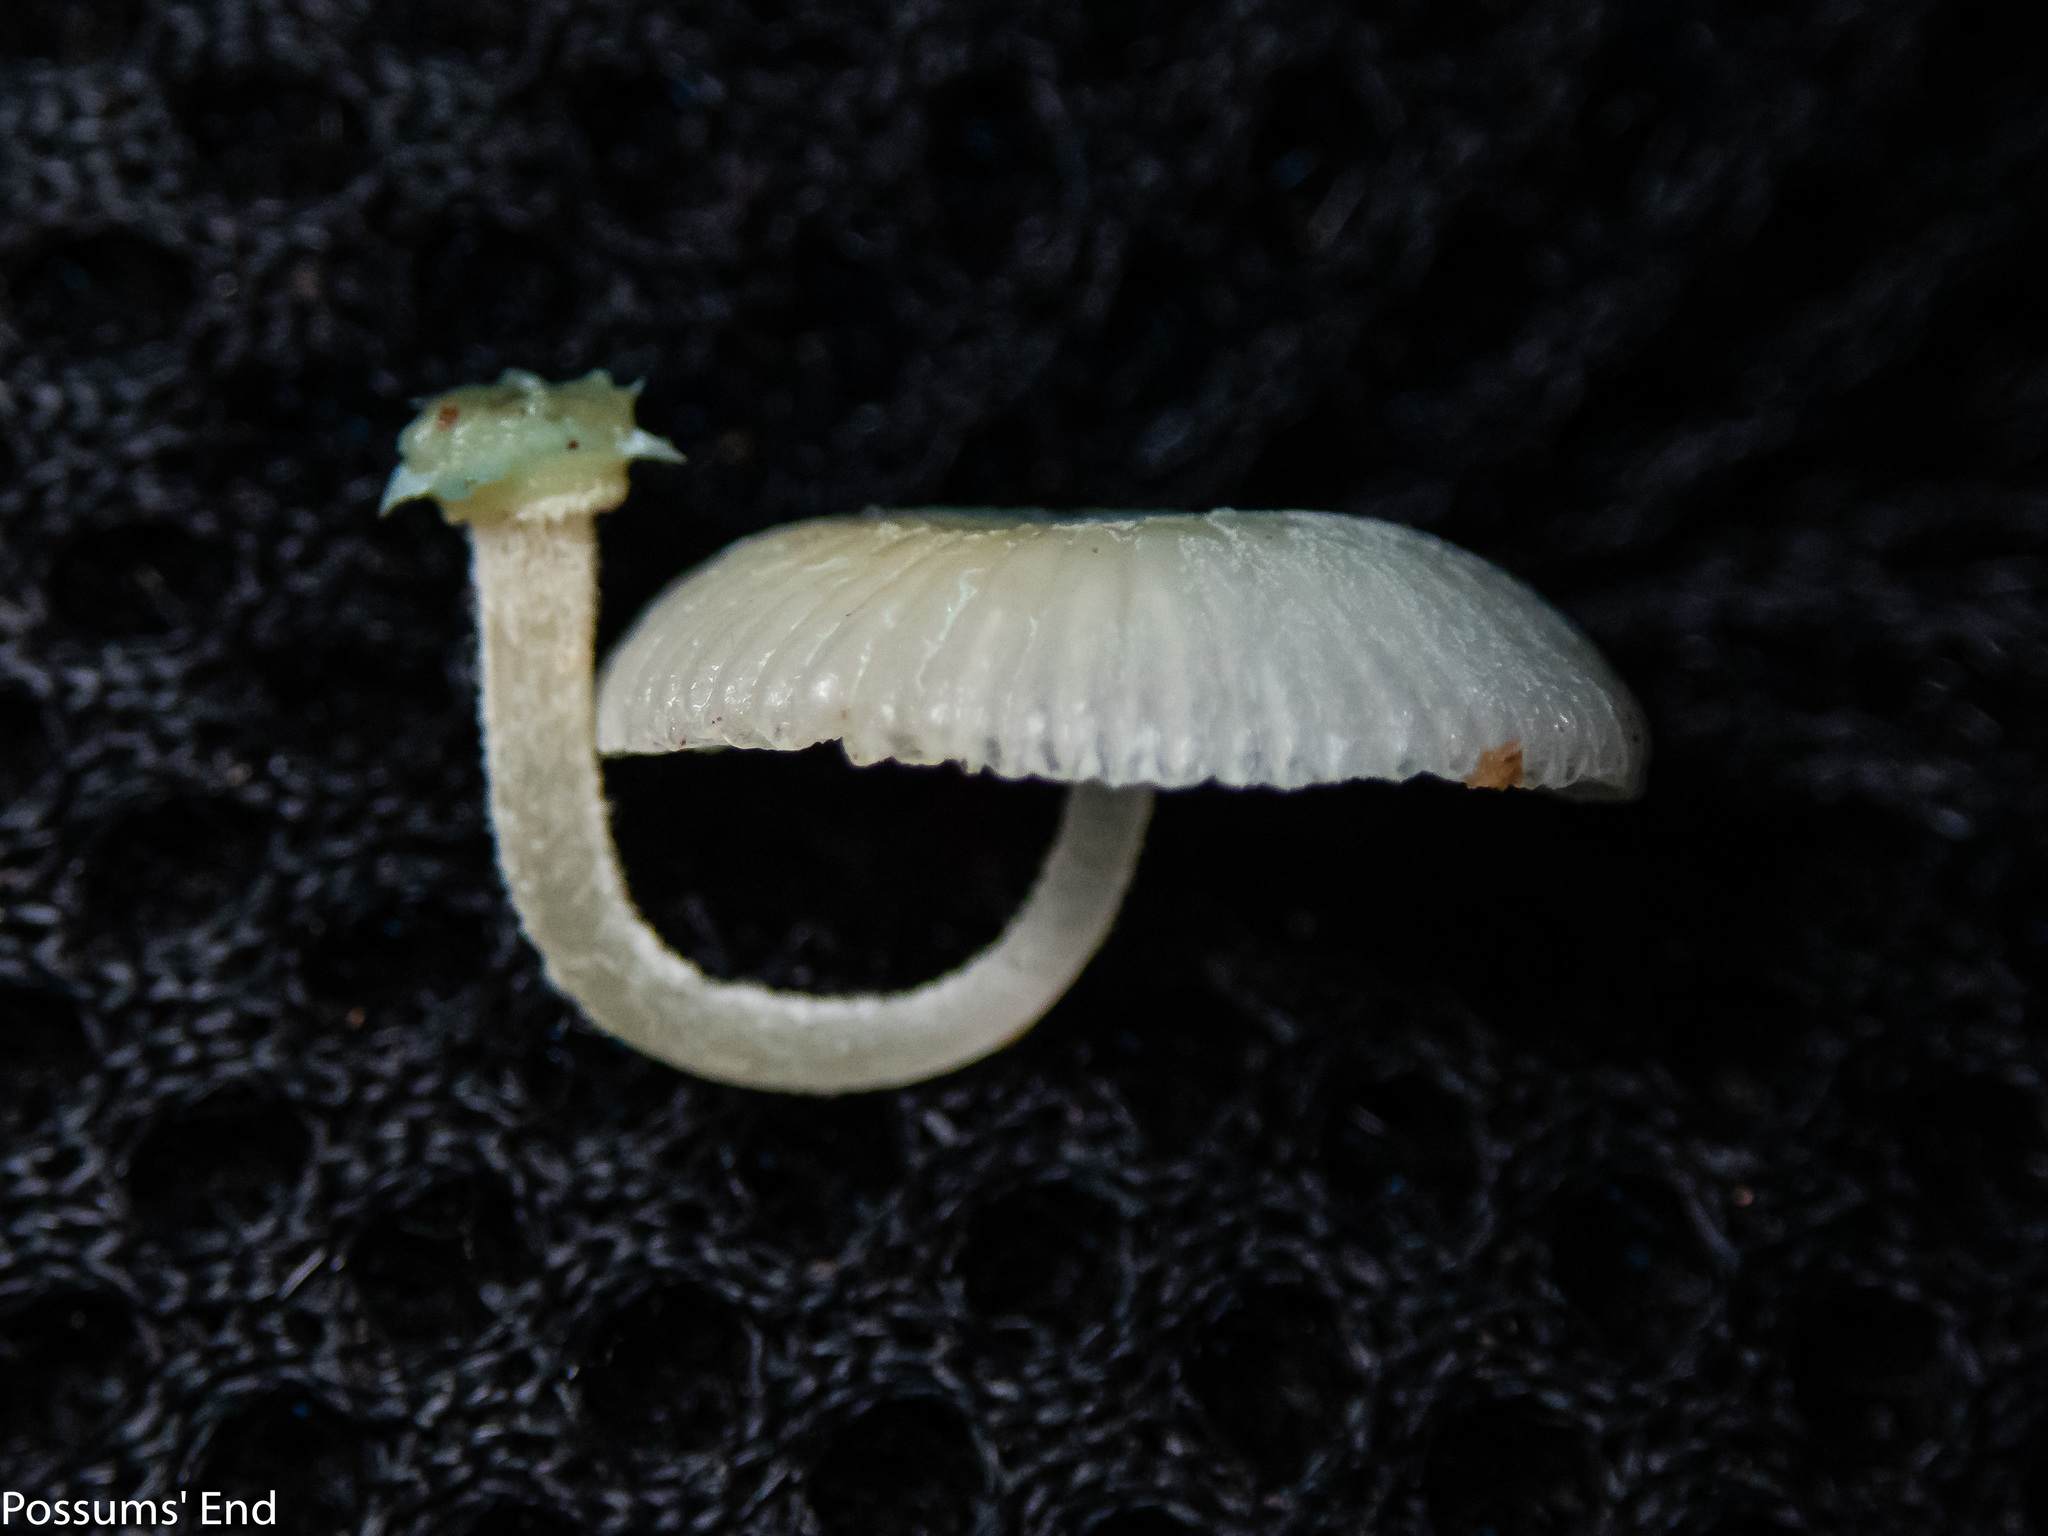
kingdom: Fungi
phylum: Basidiomycota
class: Agaricomycetes
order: Agaricales
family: Mycenaceae
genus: Mycena
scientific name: Mycena interrupta
